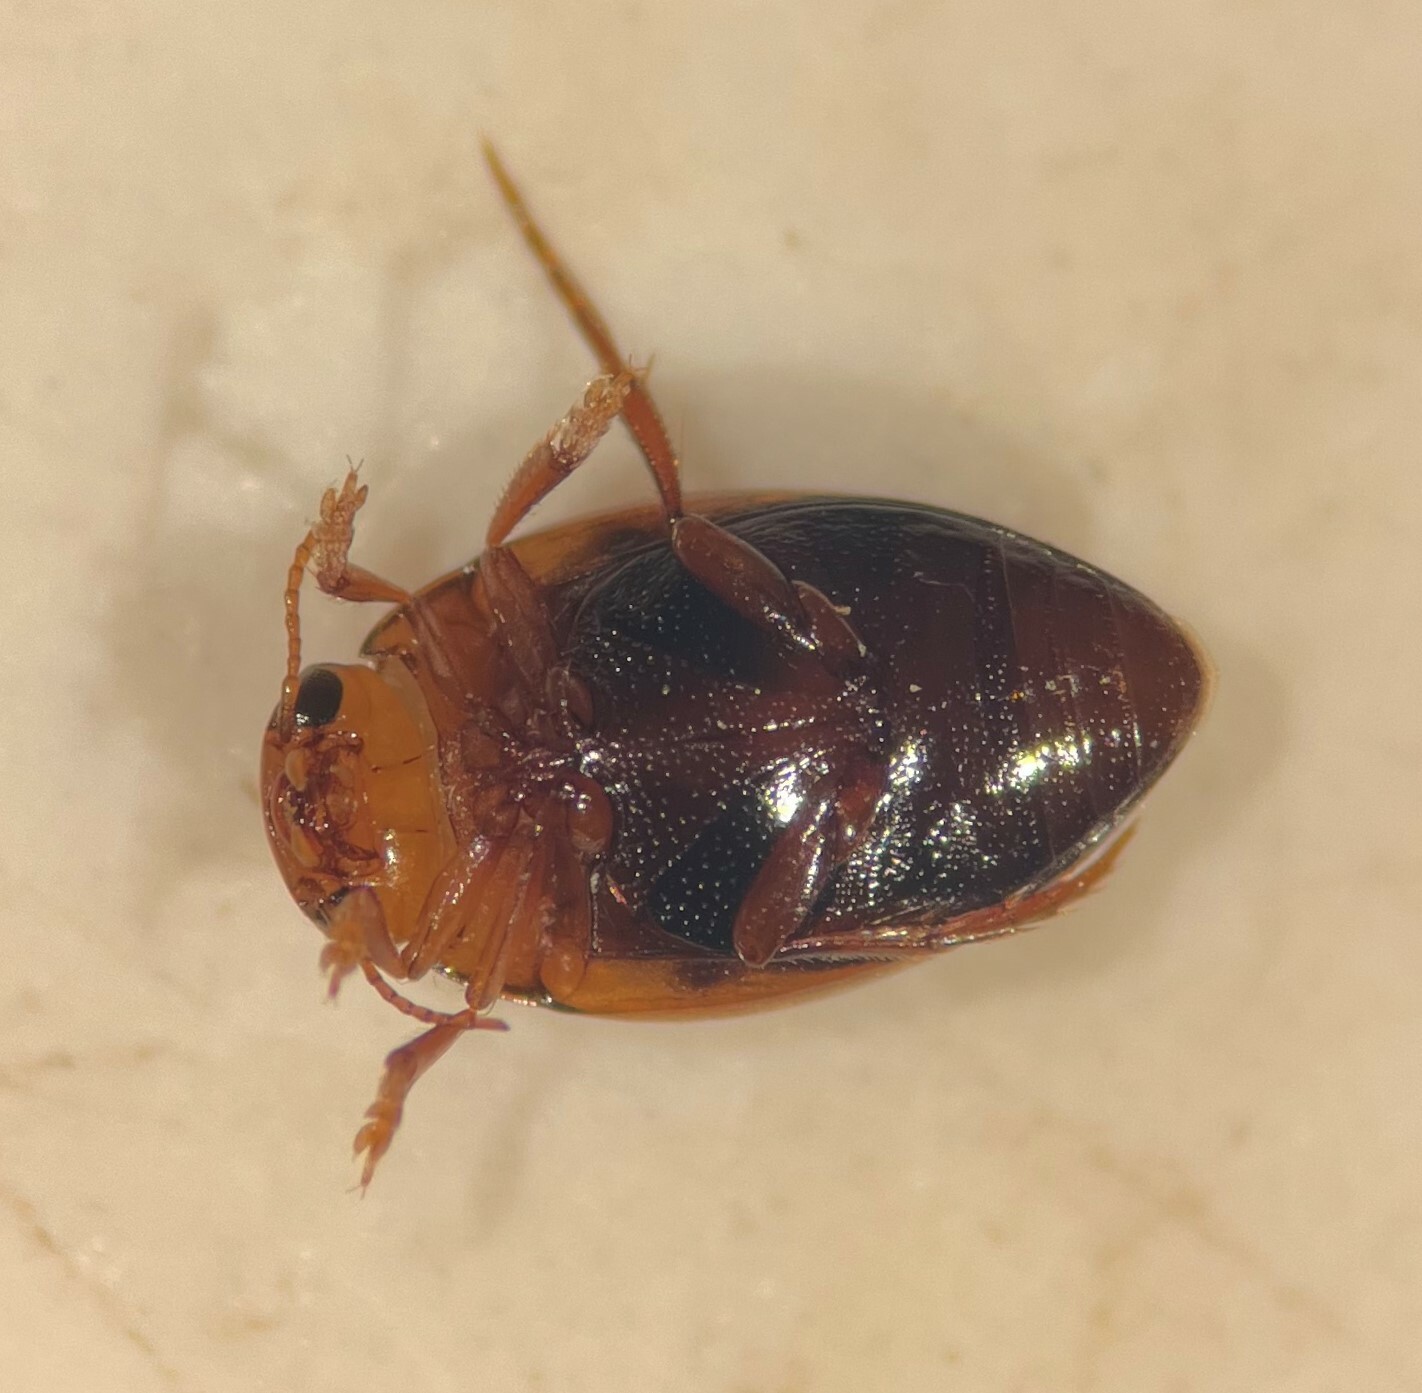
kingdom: Animalia
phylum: Arthropoda
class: Insecta
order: Coleoptera
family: Dytiscidae
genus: Clemnius
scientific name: Clemnius laccophilinus
